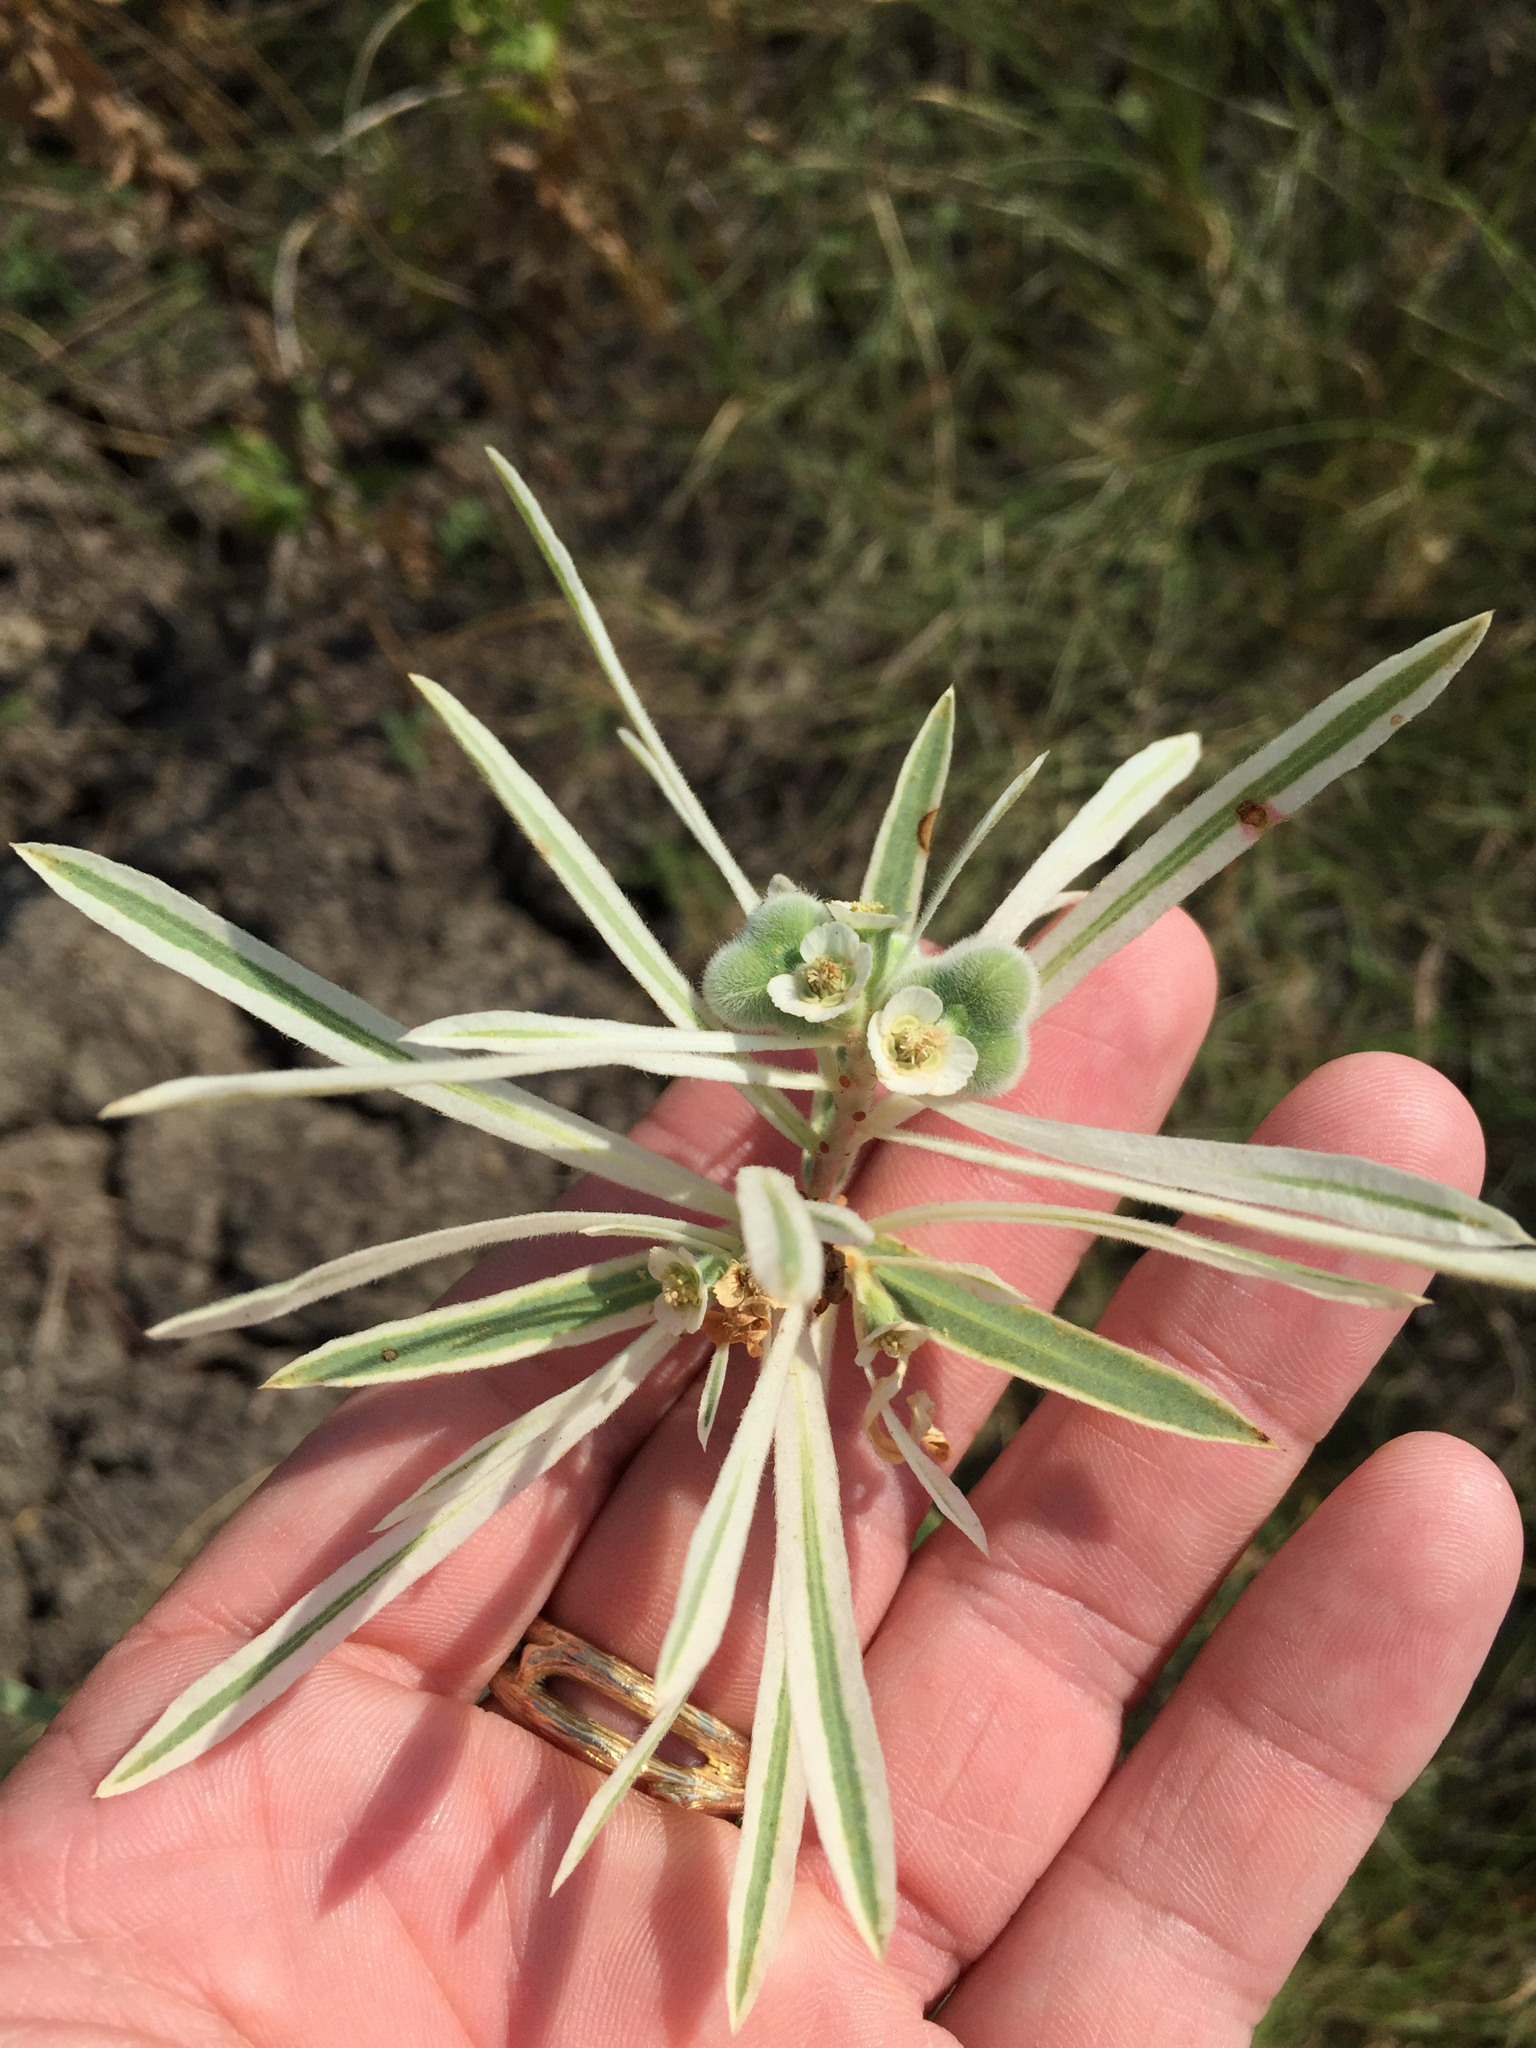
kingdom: Plantae
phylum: Tracheophyta
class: Magnoliopsida
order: Malpighiales
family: Euphorbiaceae
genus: Euphorbia
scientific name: Euphorbia bicolor
